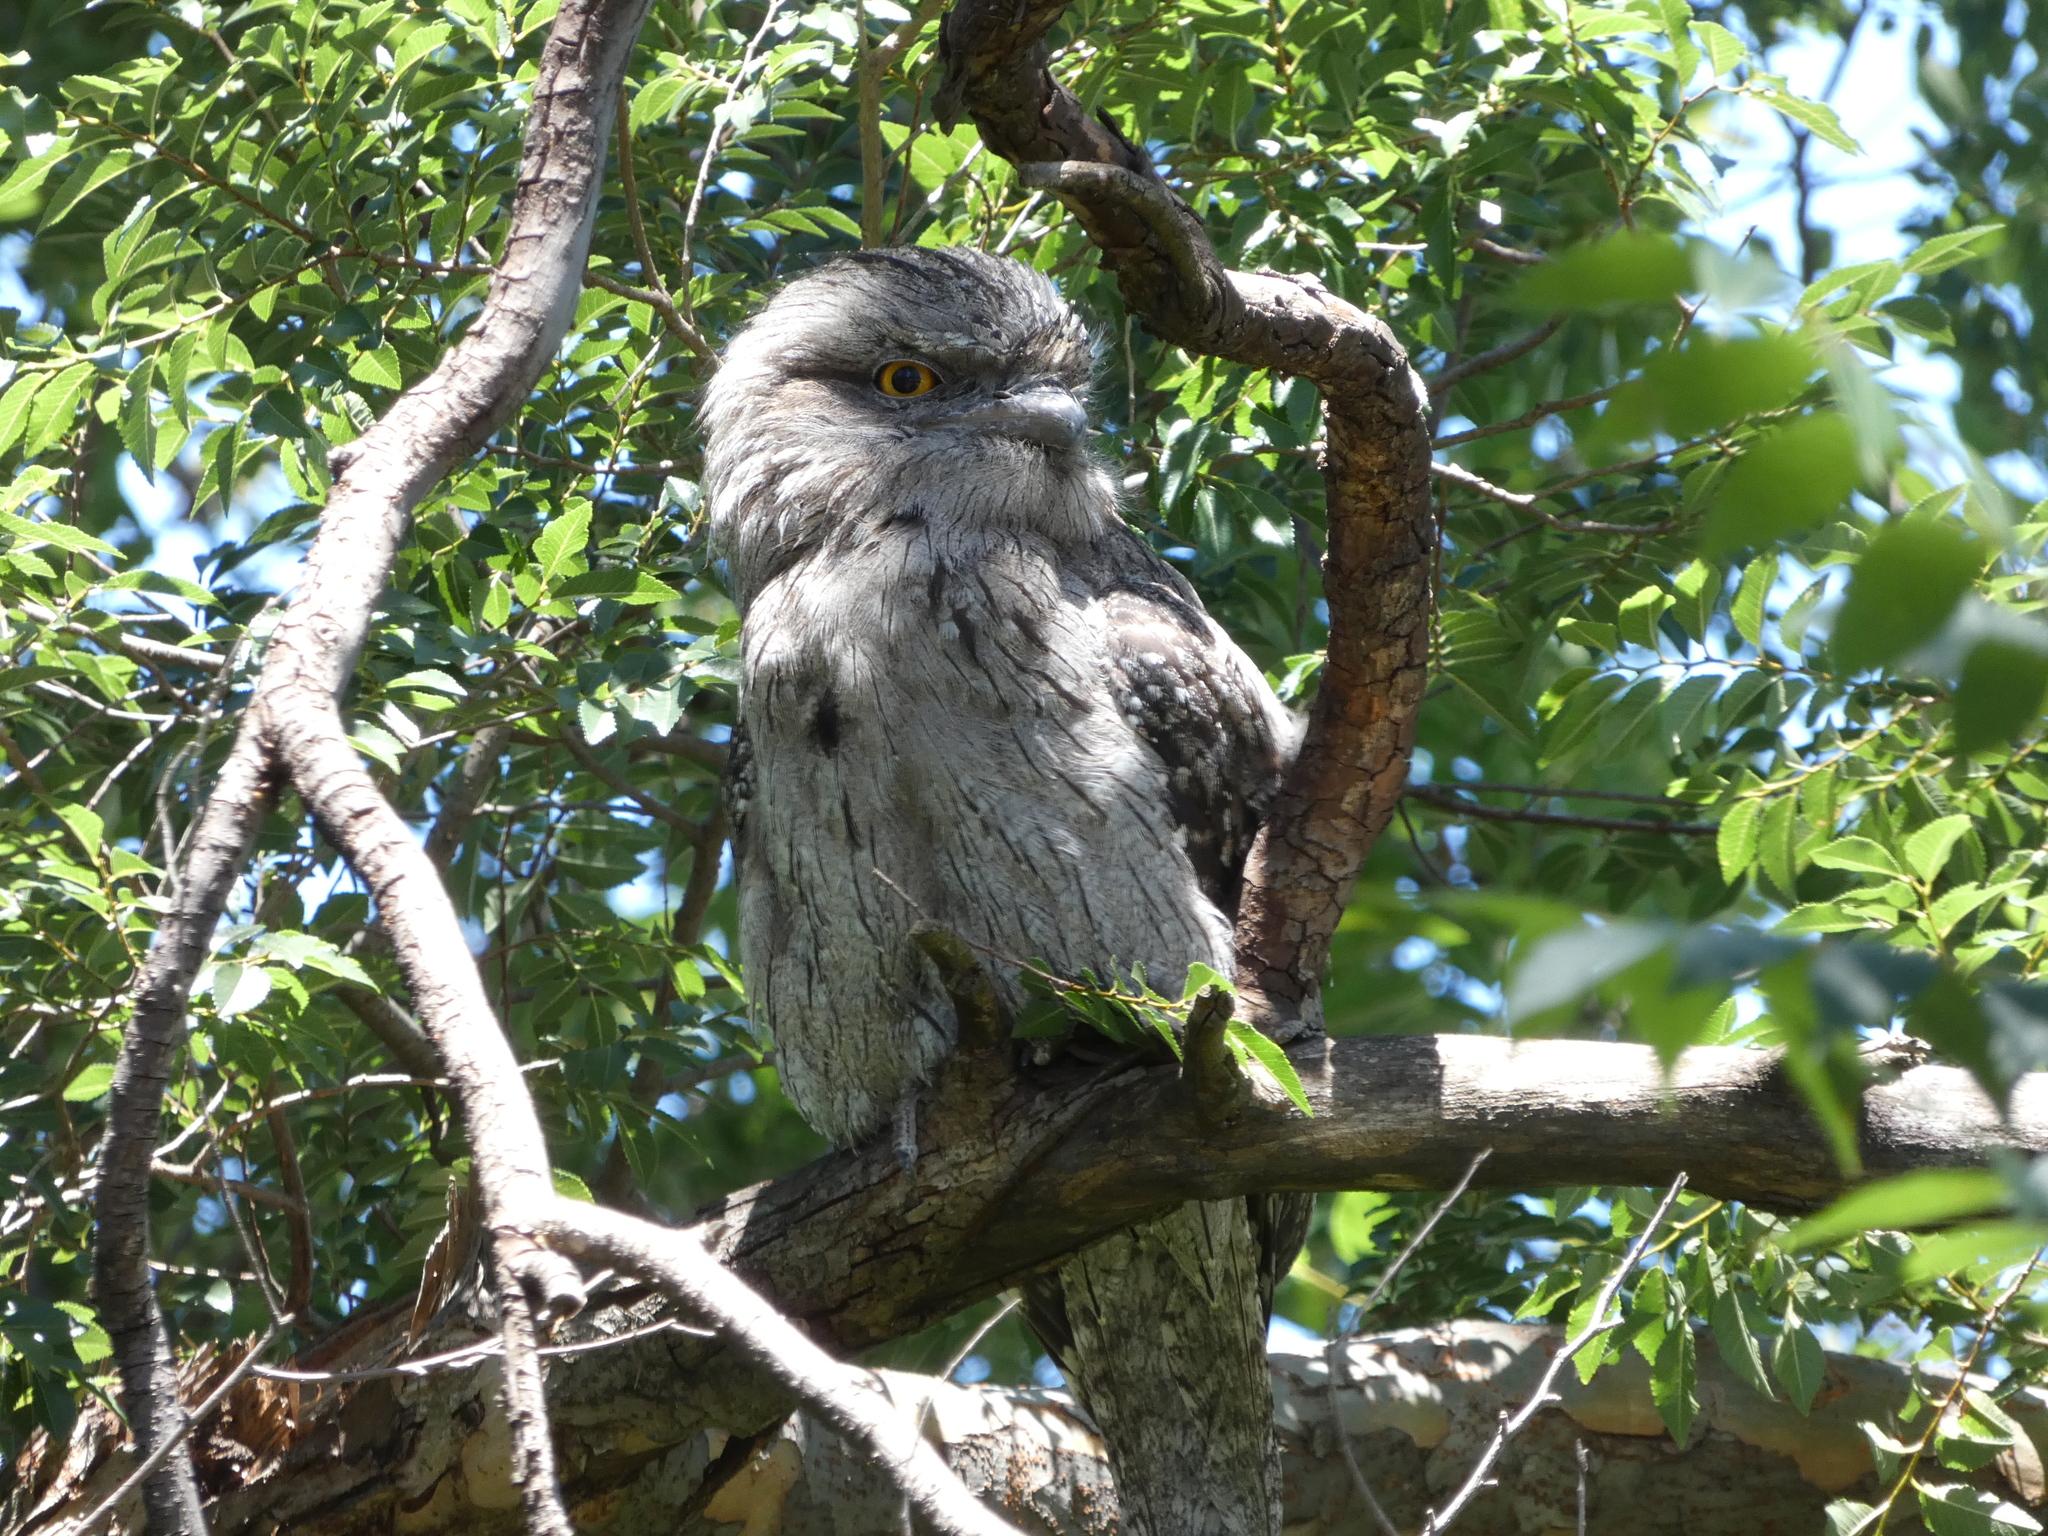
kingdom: Animalia
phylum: Chordata
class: Aves
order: Caprimulgiformes
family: Podargidae
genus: Podargus
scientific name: Podargus strigoides
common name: Tawny frogmouth
